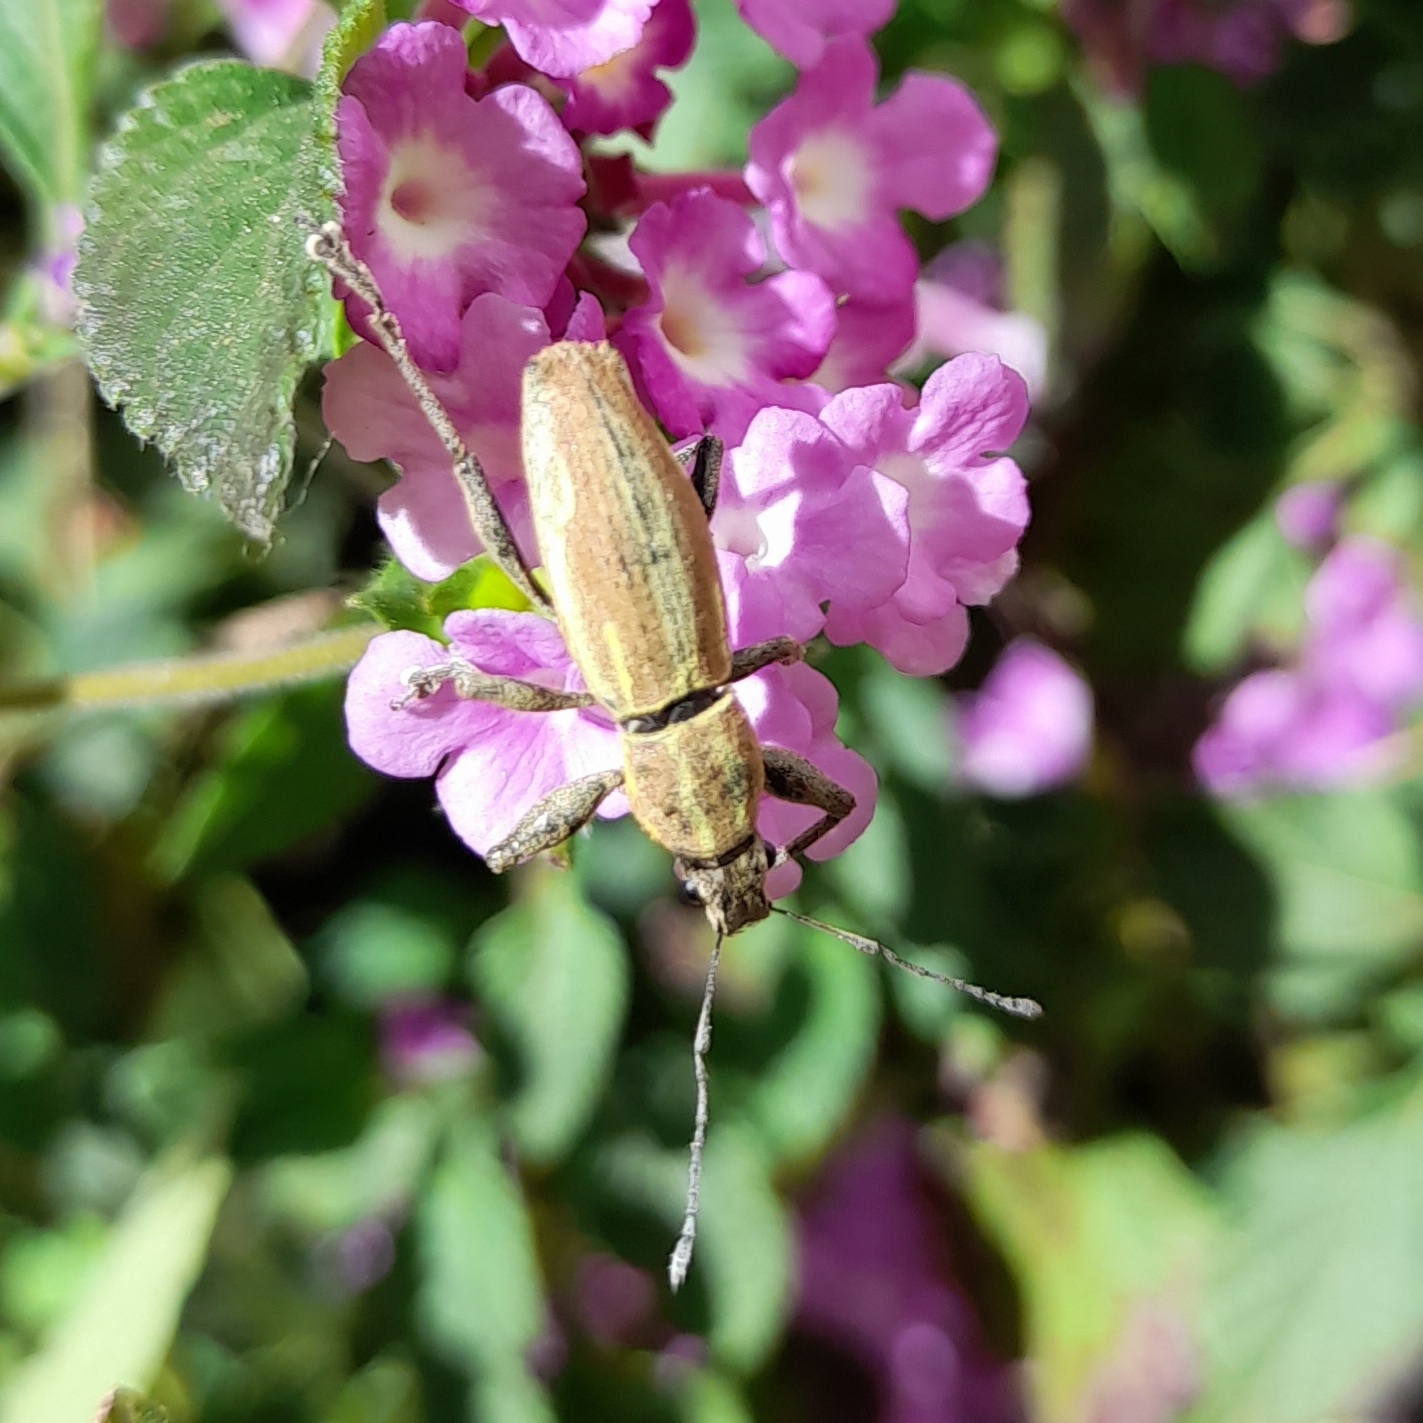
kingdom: Animalia
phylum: Arthropoda
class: Insecta
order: Coleoptera
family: Curculionidae
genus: Naupactus
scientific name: Naupactus xanthographus
